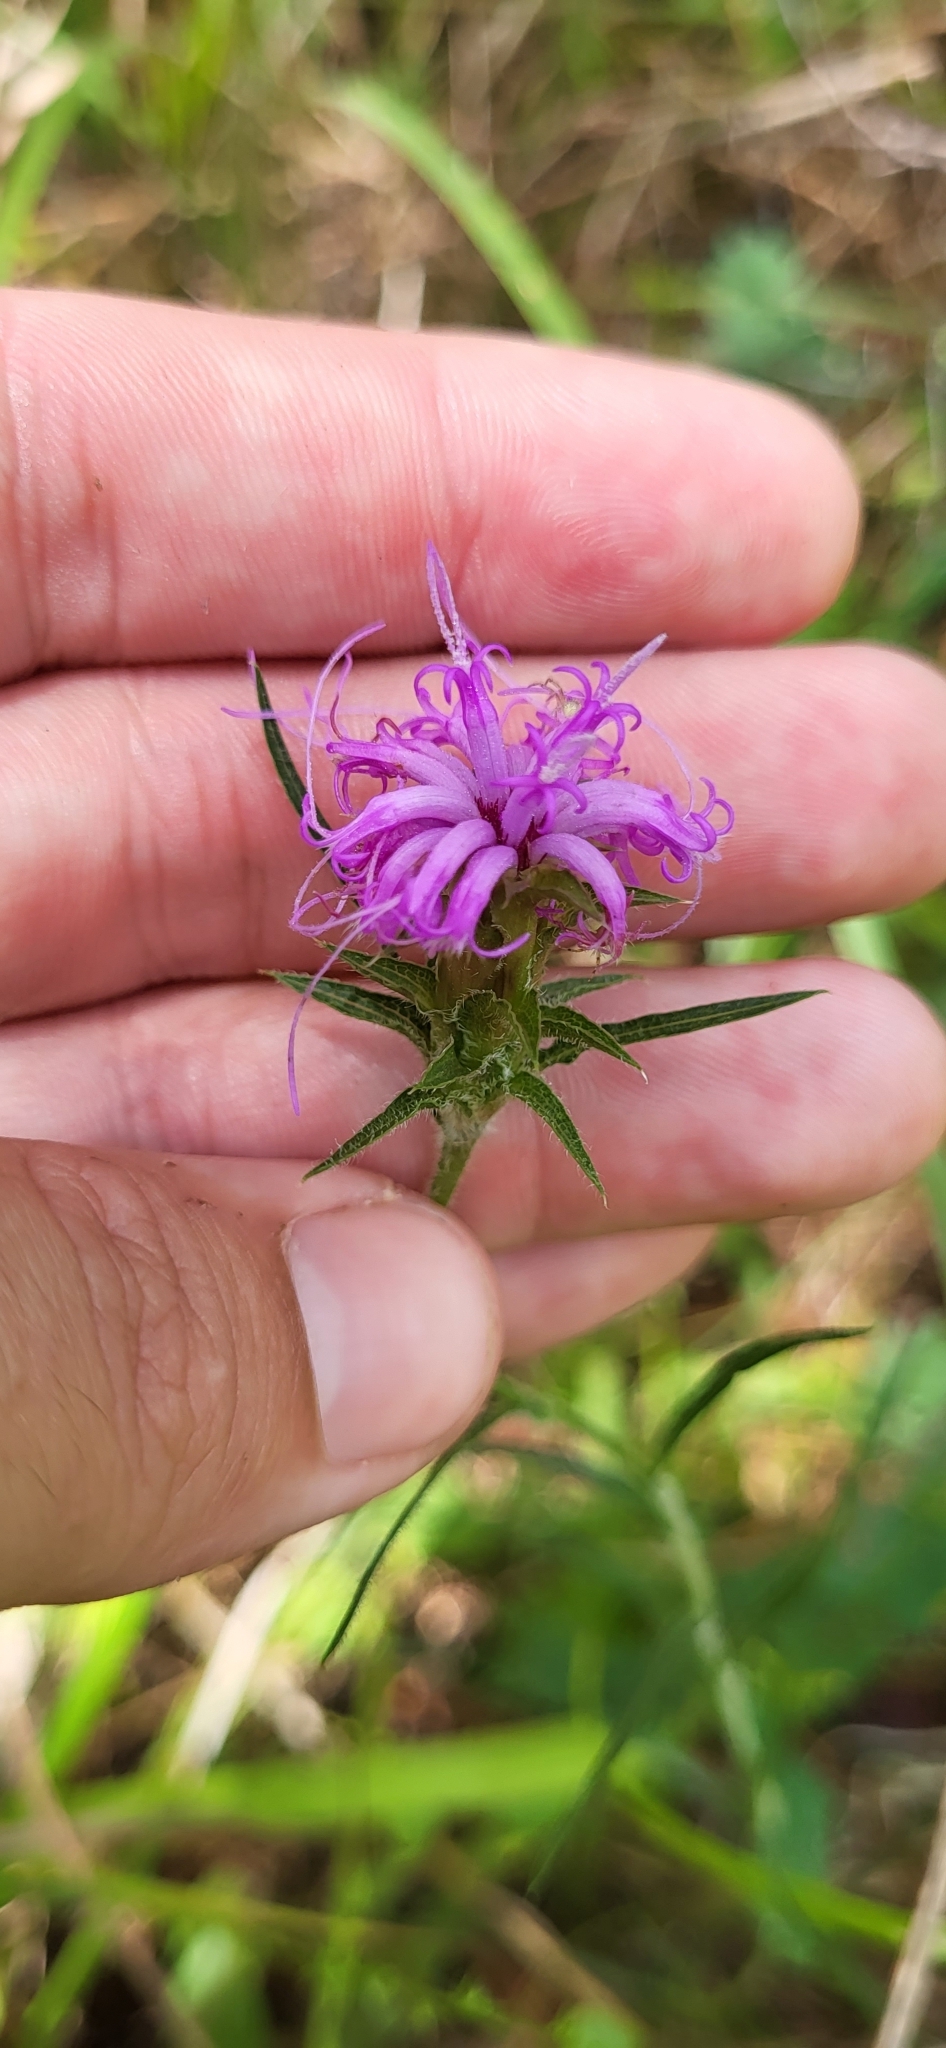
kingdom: Plantae
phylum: Tracheophyta
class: Magnoliopsida
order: Asterales
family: Asteraceae
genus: Liatris
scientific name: Liatris squarrosa
